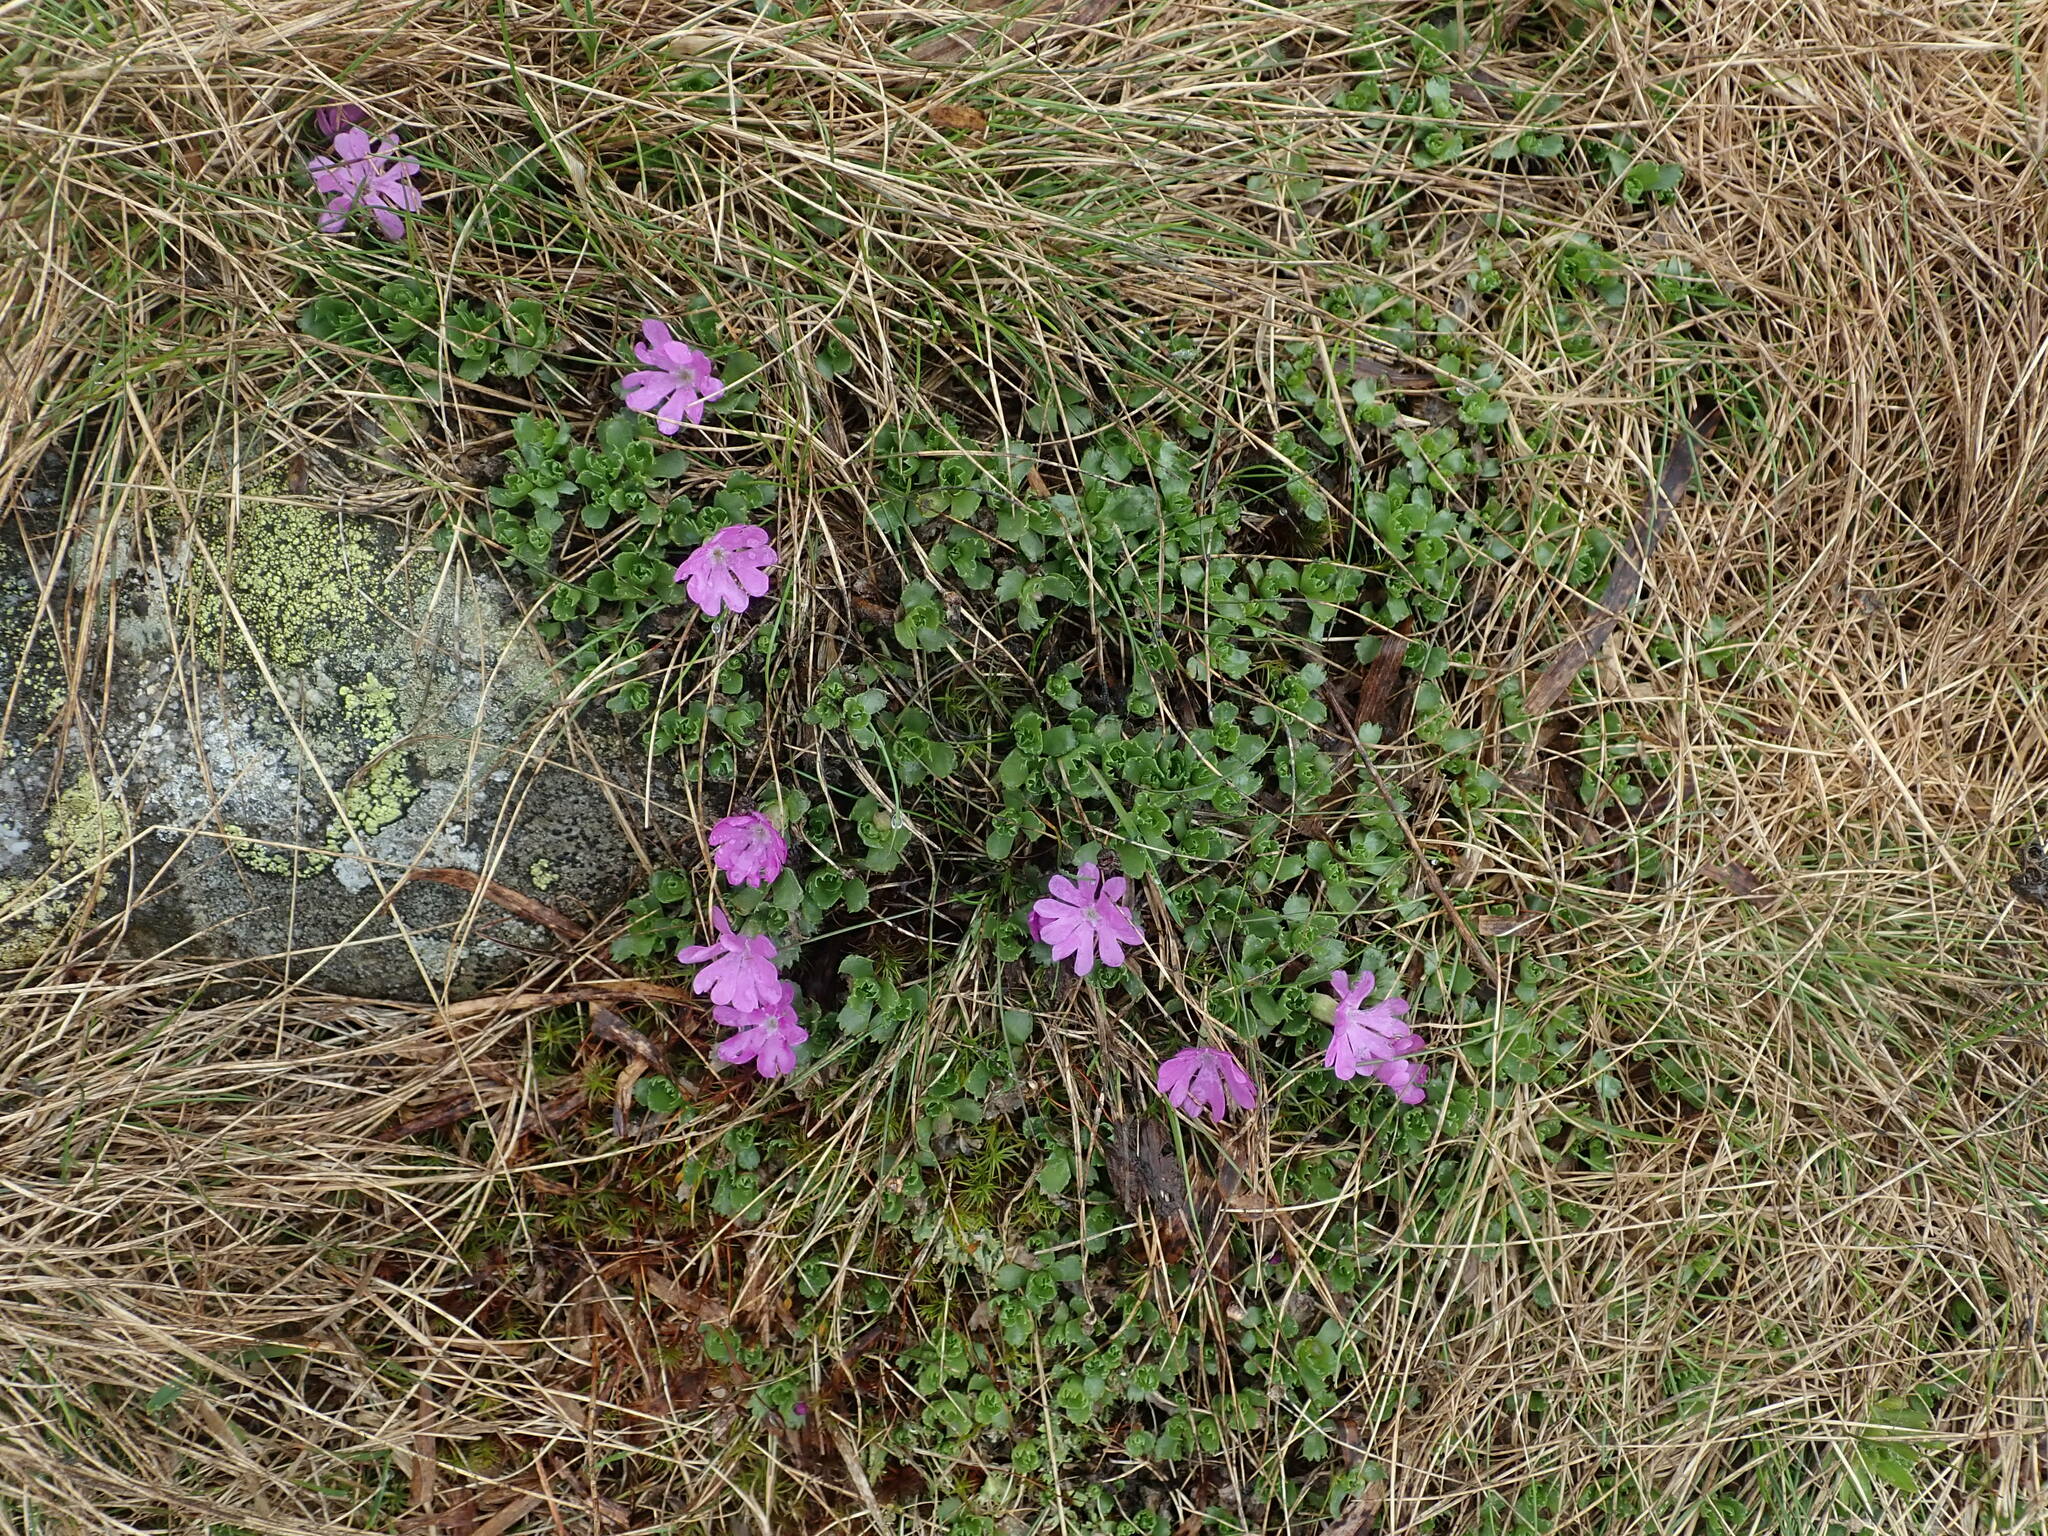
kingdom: Plantae
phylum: Tracheophyta
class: Magnoliopsida
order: Ericales
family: Primulaceae
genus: Primula
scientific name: Primula minima
